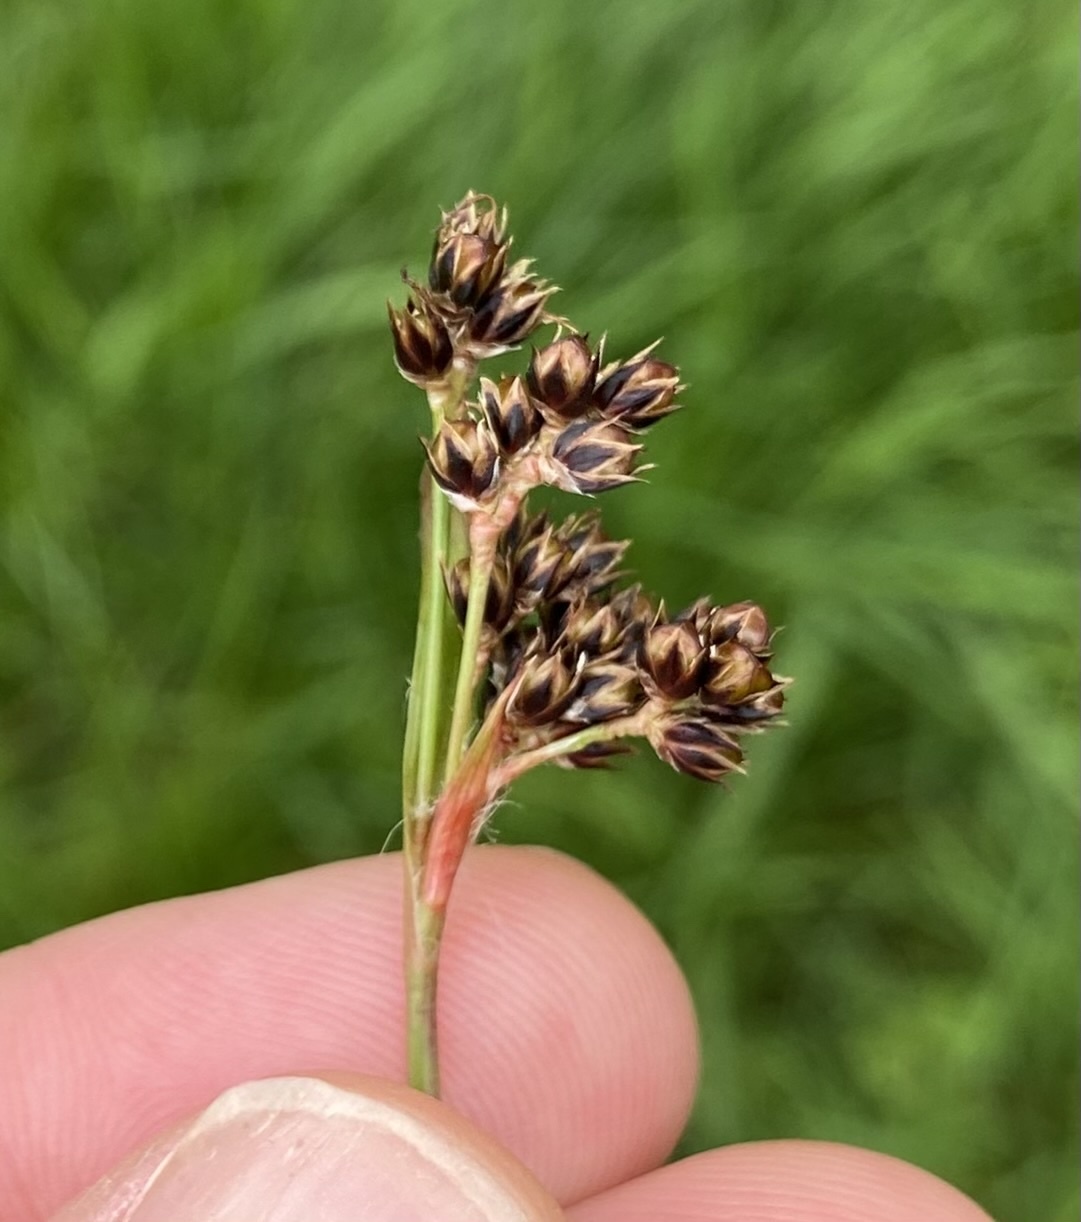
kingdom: Plantae
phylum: Tracheophyta
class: Liliopsida
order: Poales
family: Juncaceae
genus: Luzula
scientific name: Luzula campestris
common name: Field wood-rush
